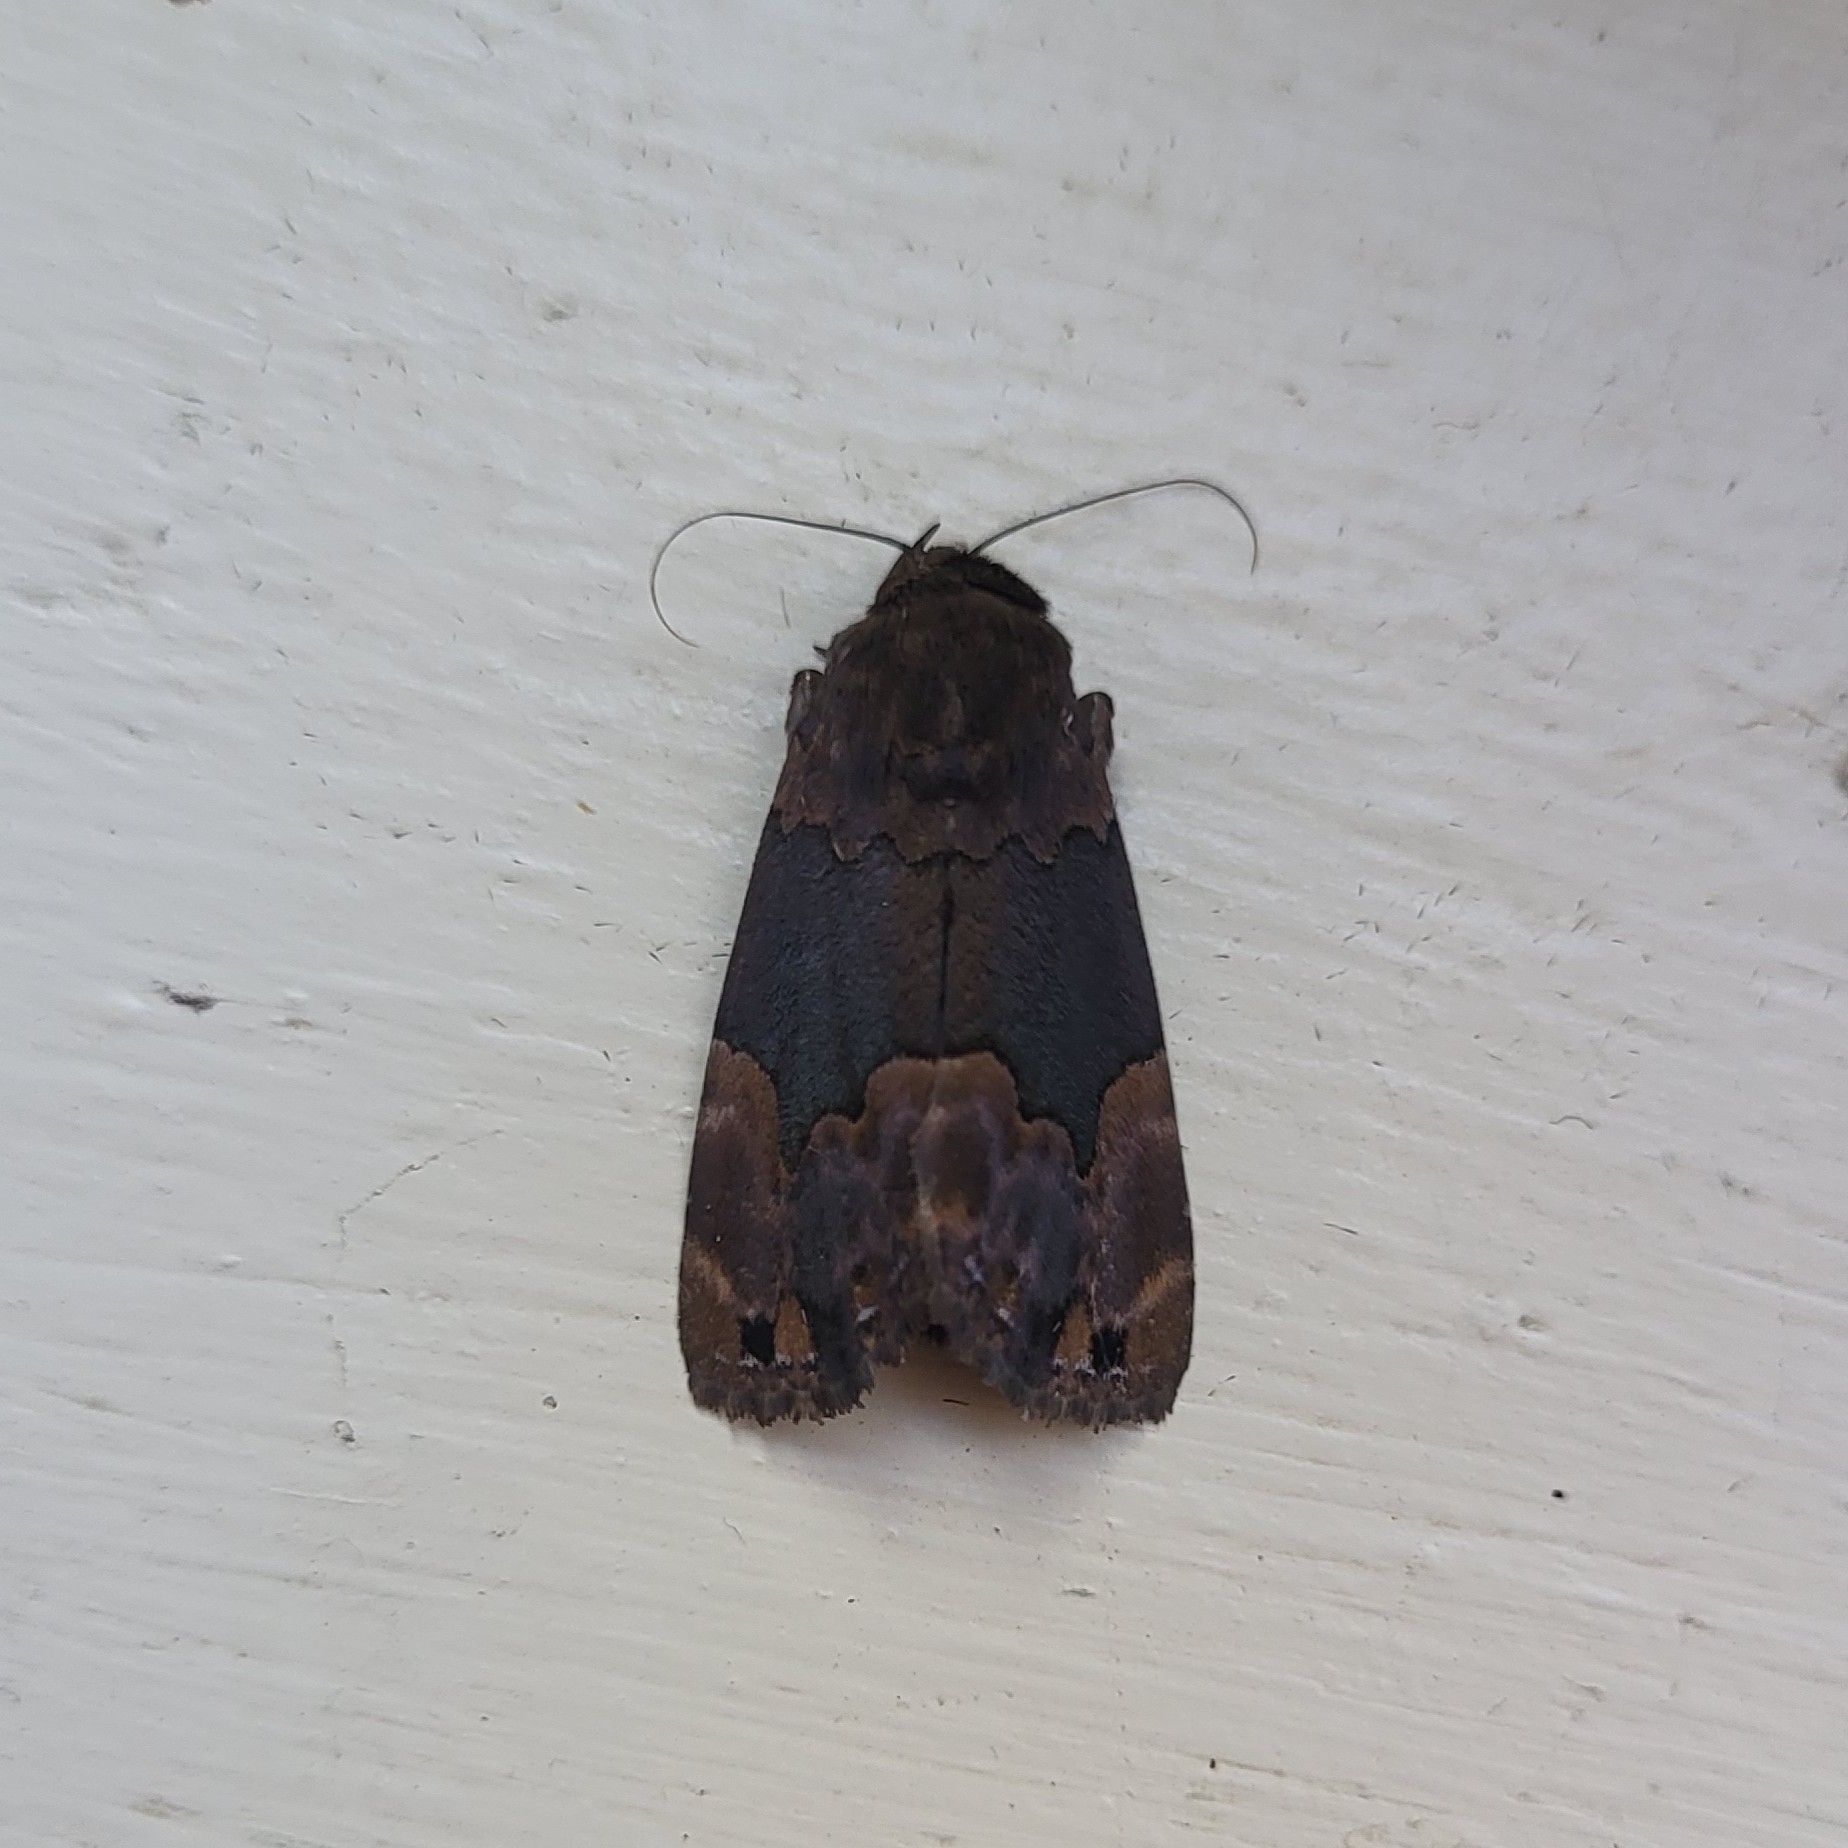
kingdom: Animalia
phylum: Arthropoda
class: Insecta
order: Lepidoptera
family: Erebidae
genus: Dinumma
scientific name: Dinumma deponens
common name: Purplish moth
